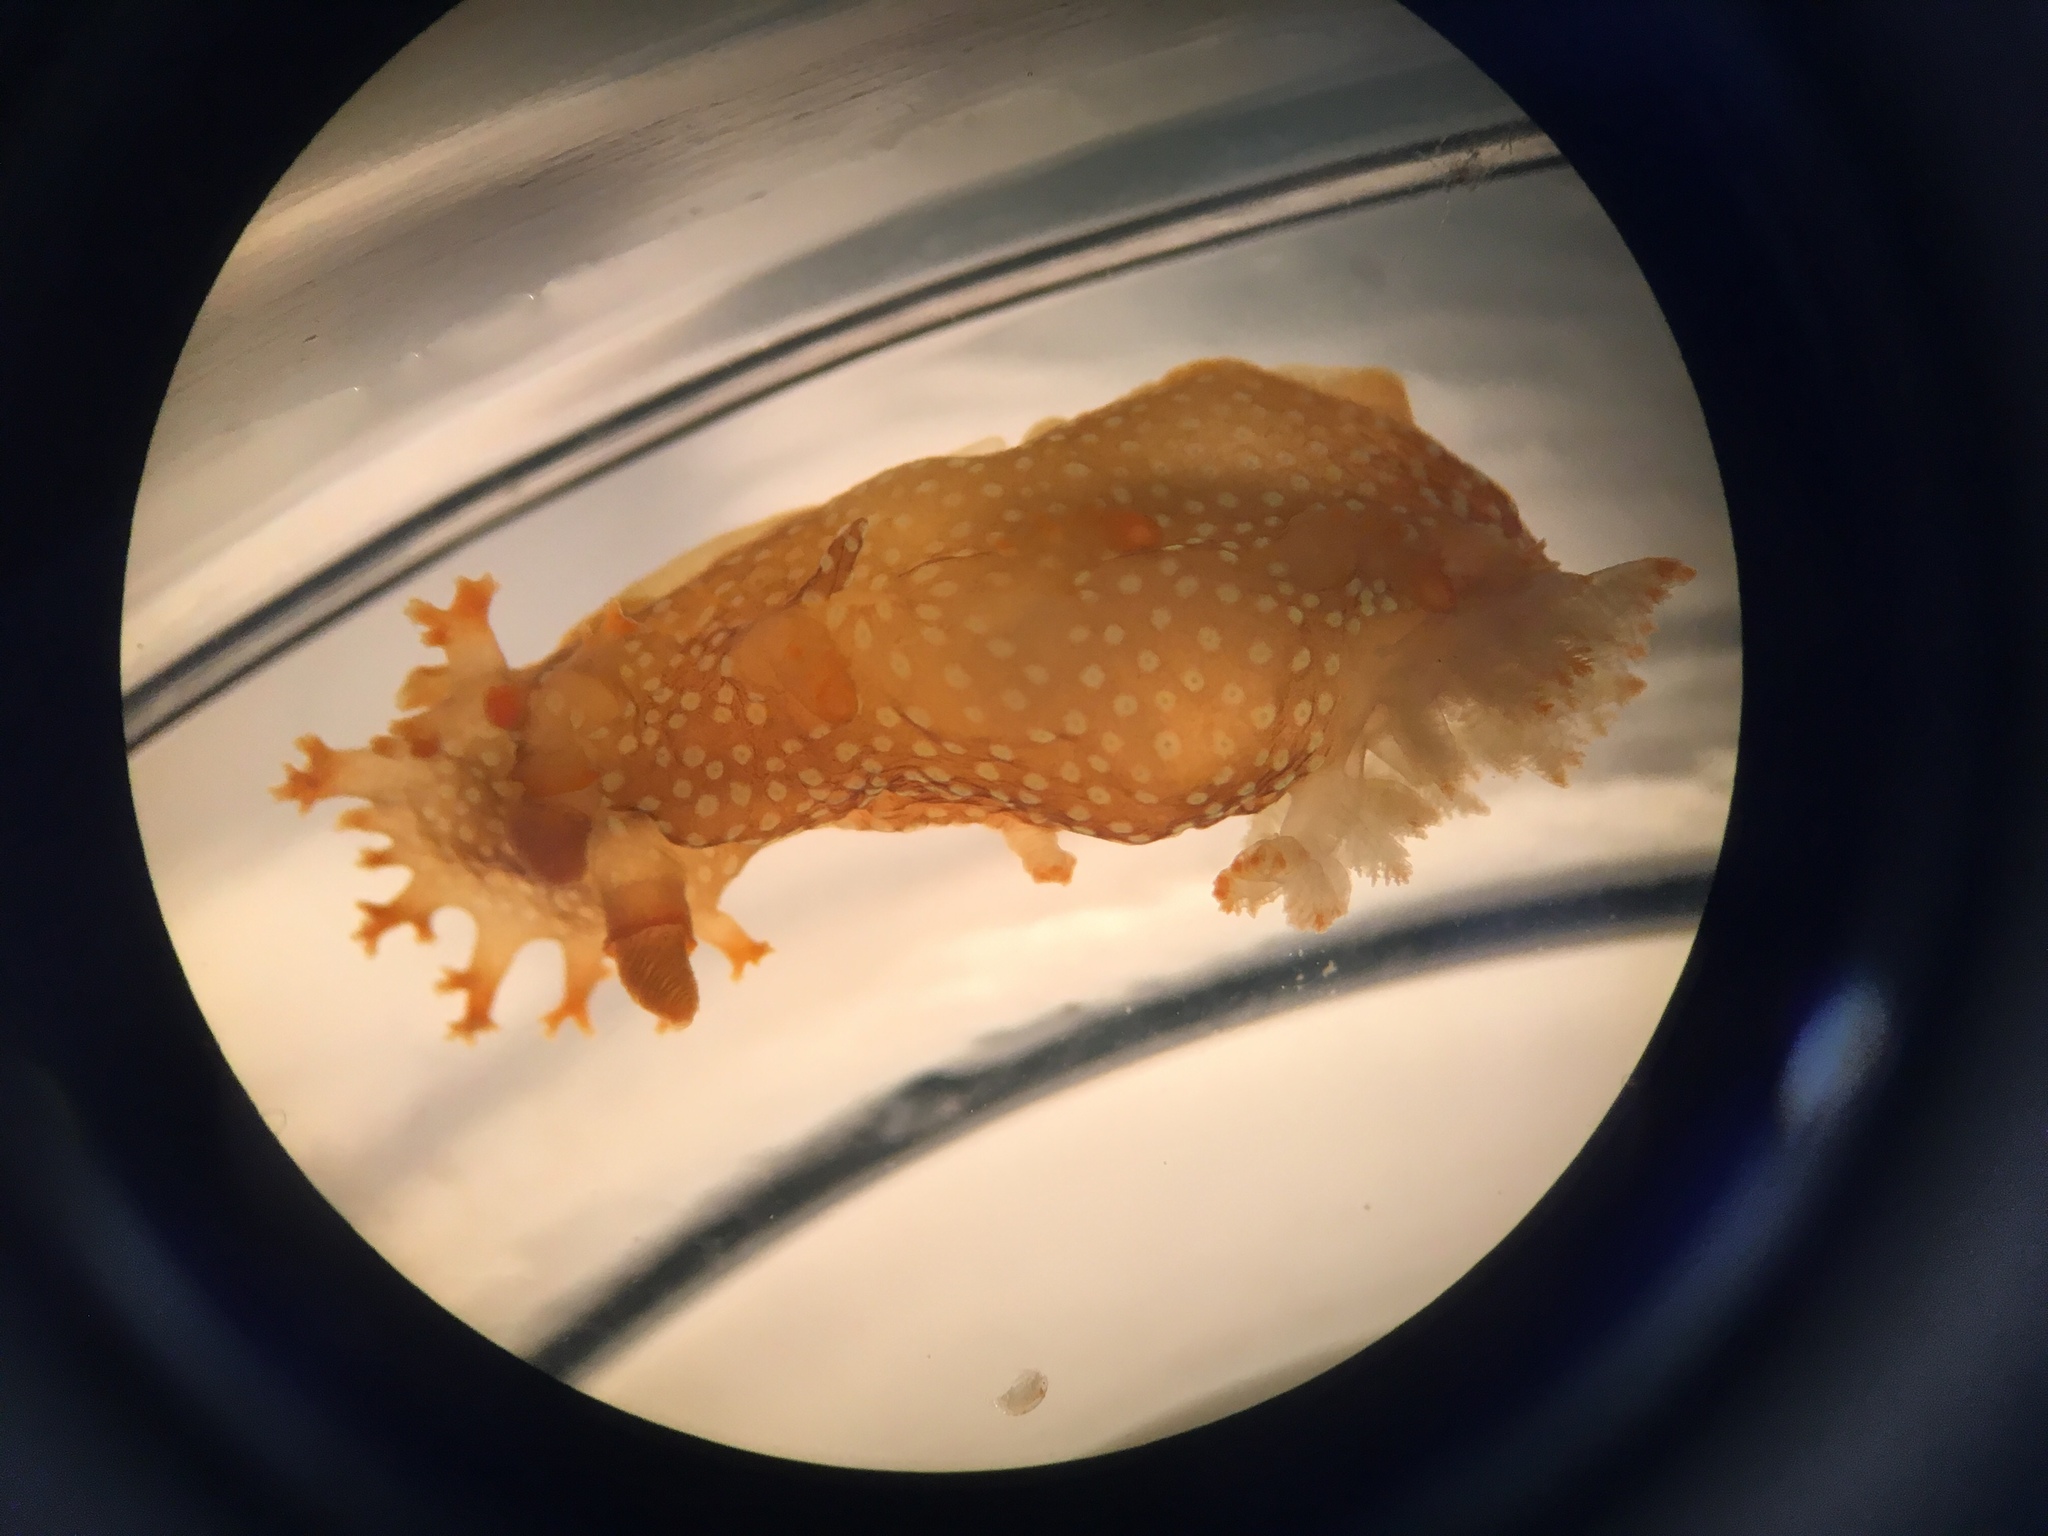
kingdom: Animalia
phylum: Mollusca
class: Gastropoda
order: Nudibranchia
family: Polyceridae
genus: Triopha
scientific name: Triopha maculata
